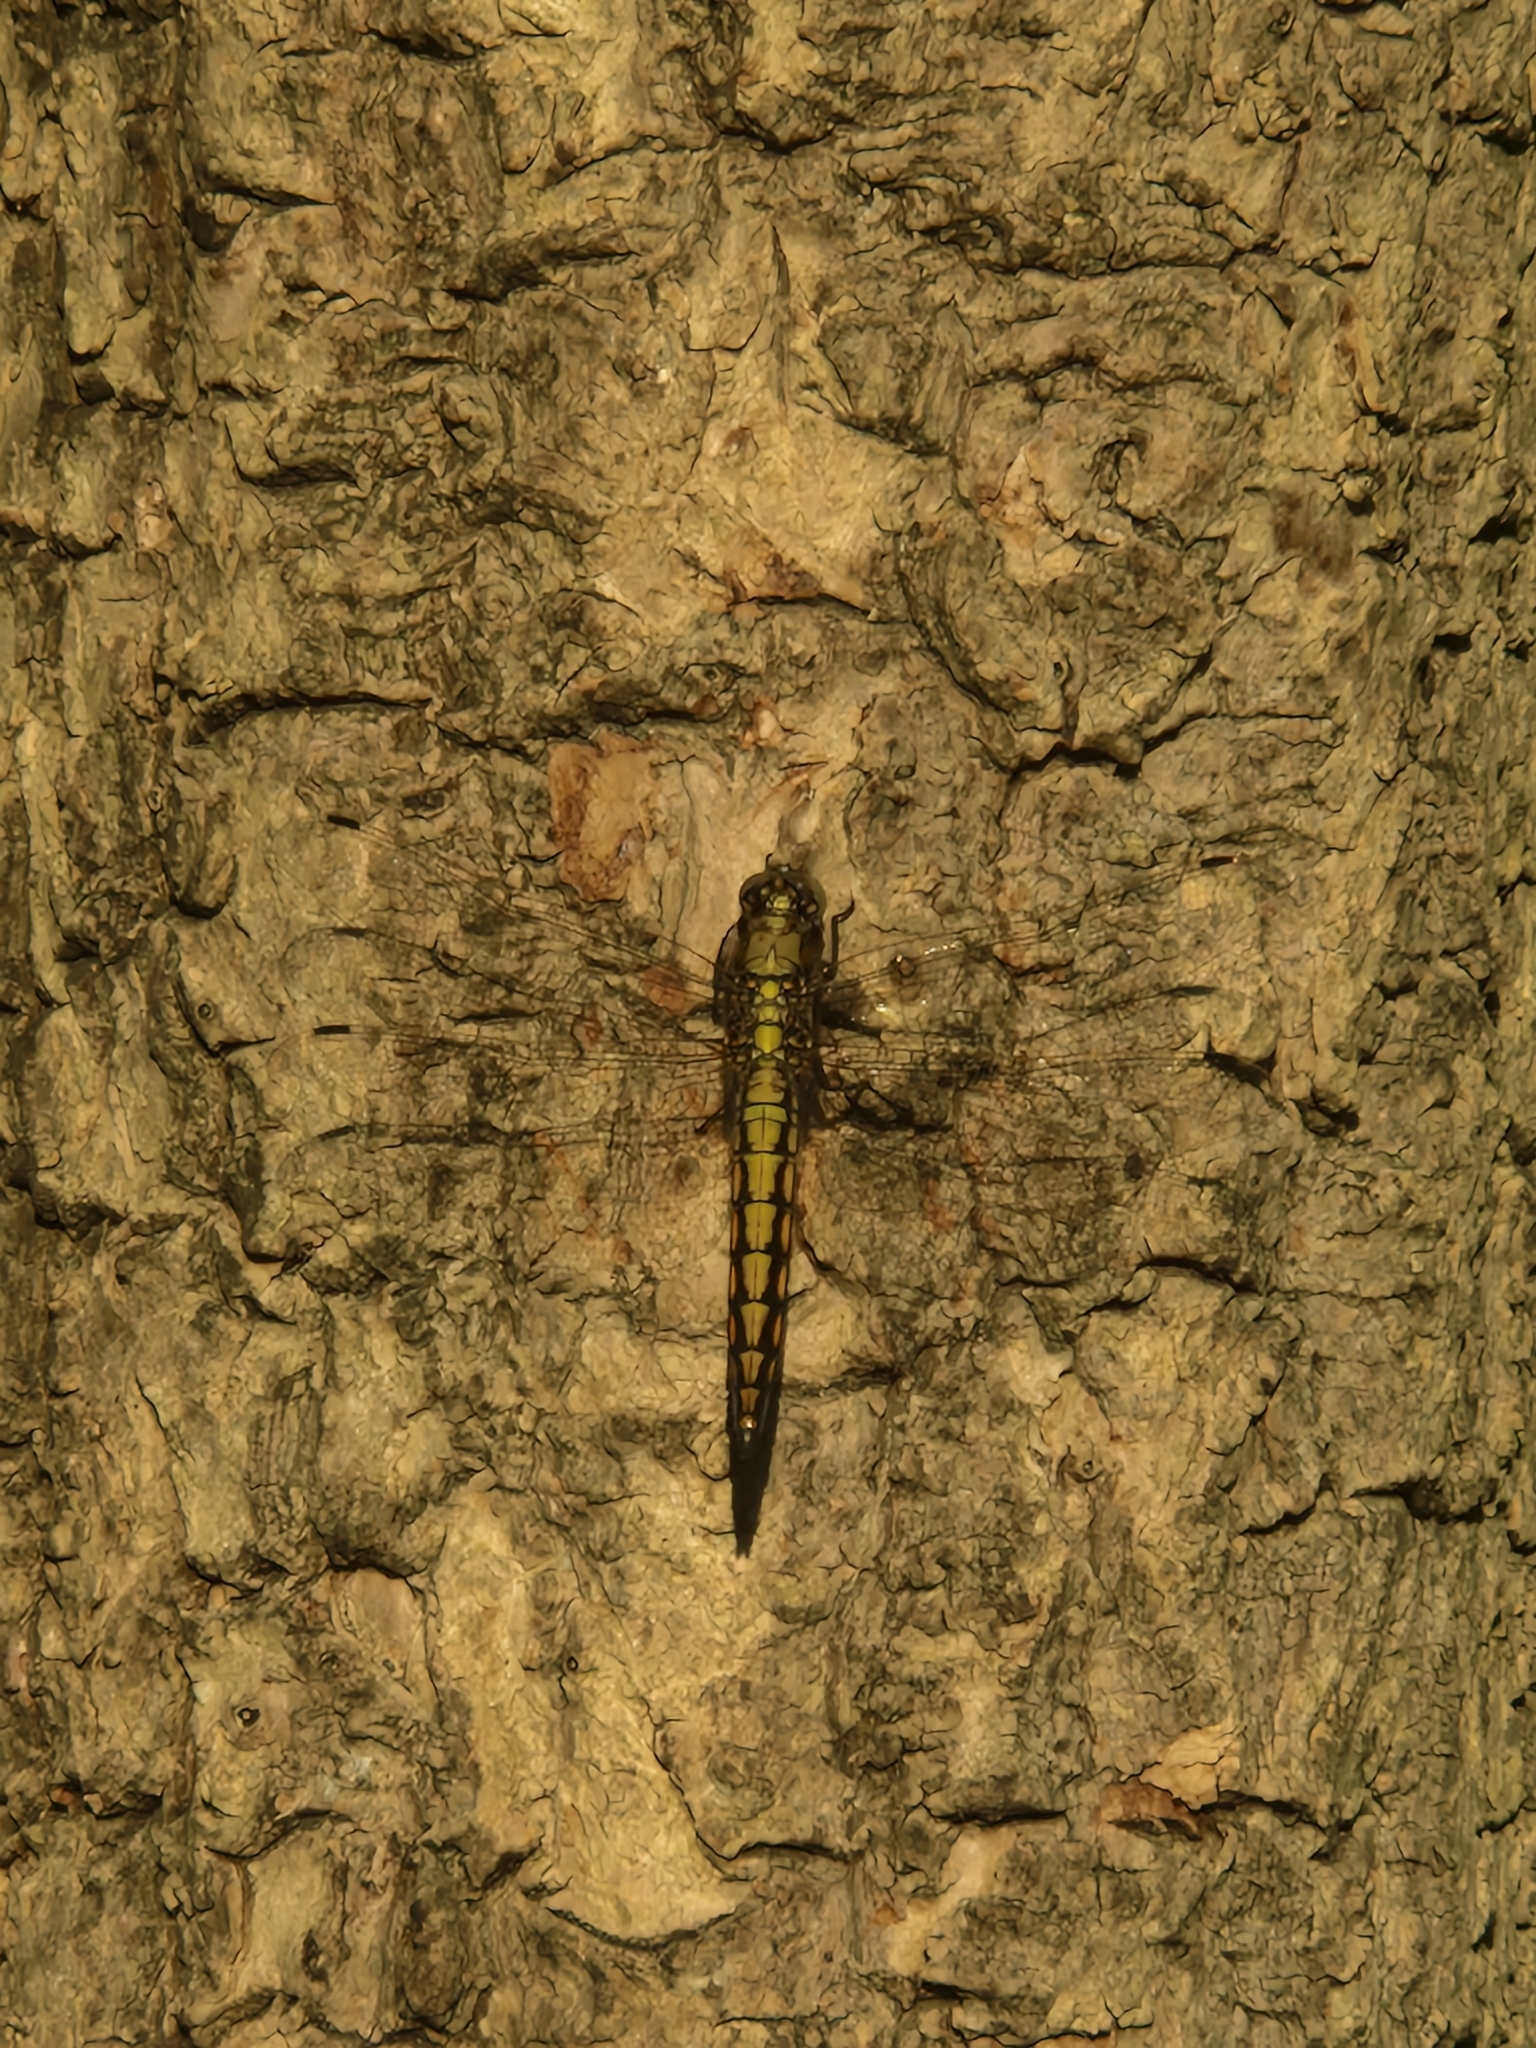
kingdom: Animalia
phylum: Arthropoda
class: Insecta
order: Odonata
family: Libellulidae
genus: Orthetrum
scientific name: Orthetrum cancellatum
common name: Black-tailed skimmer
